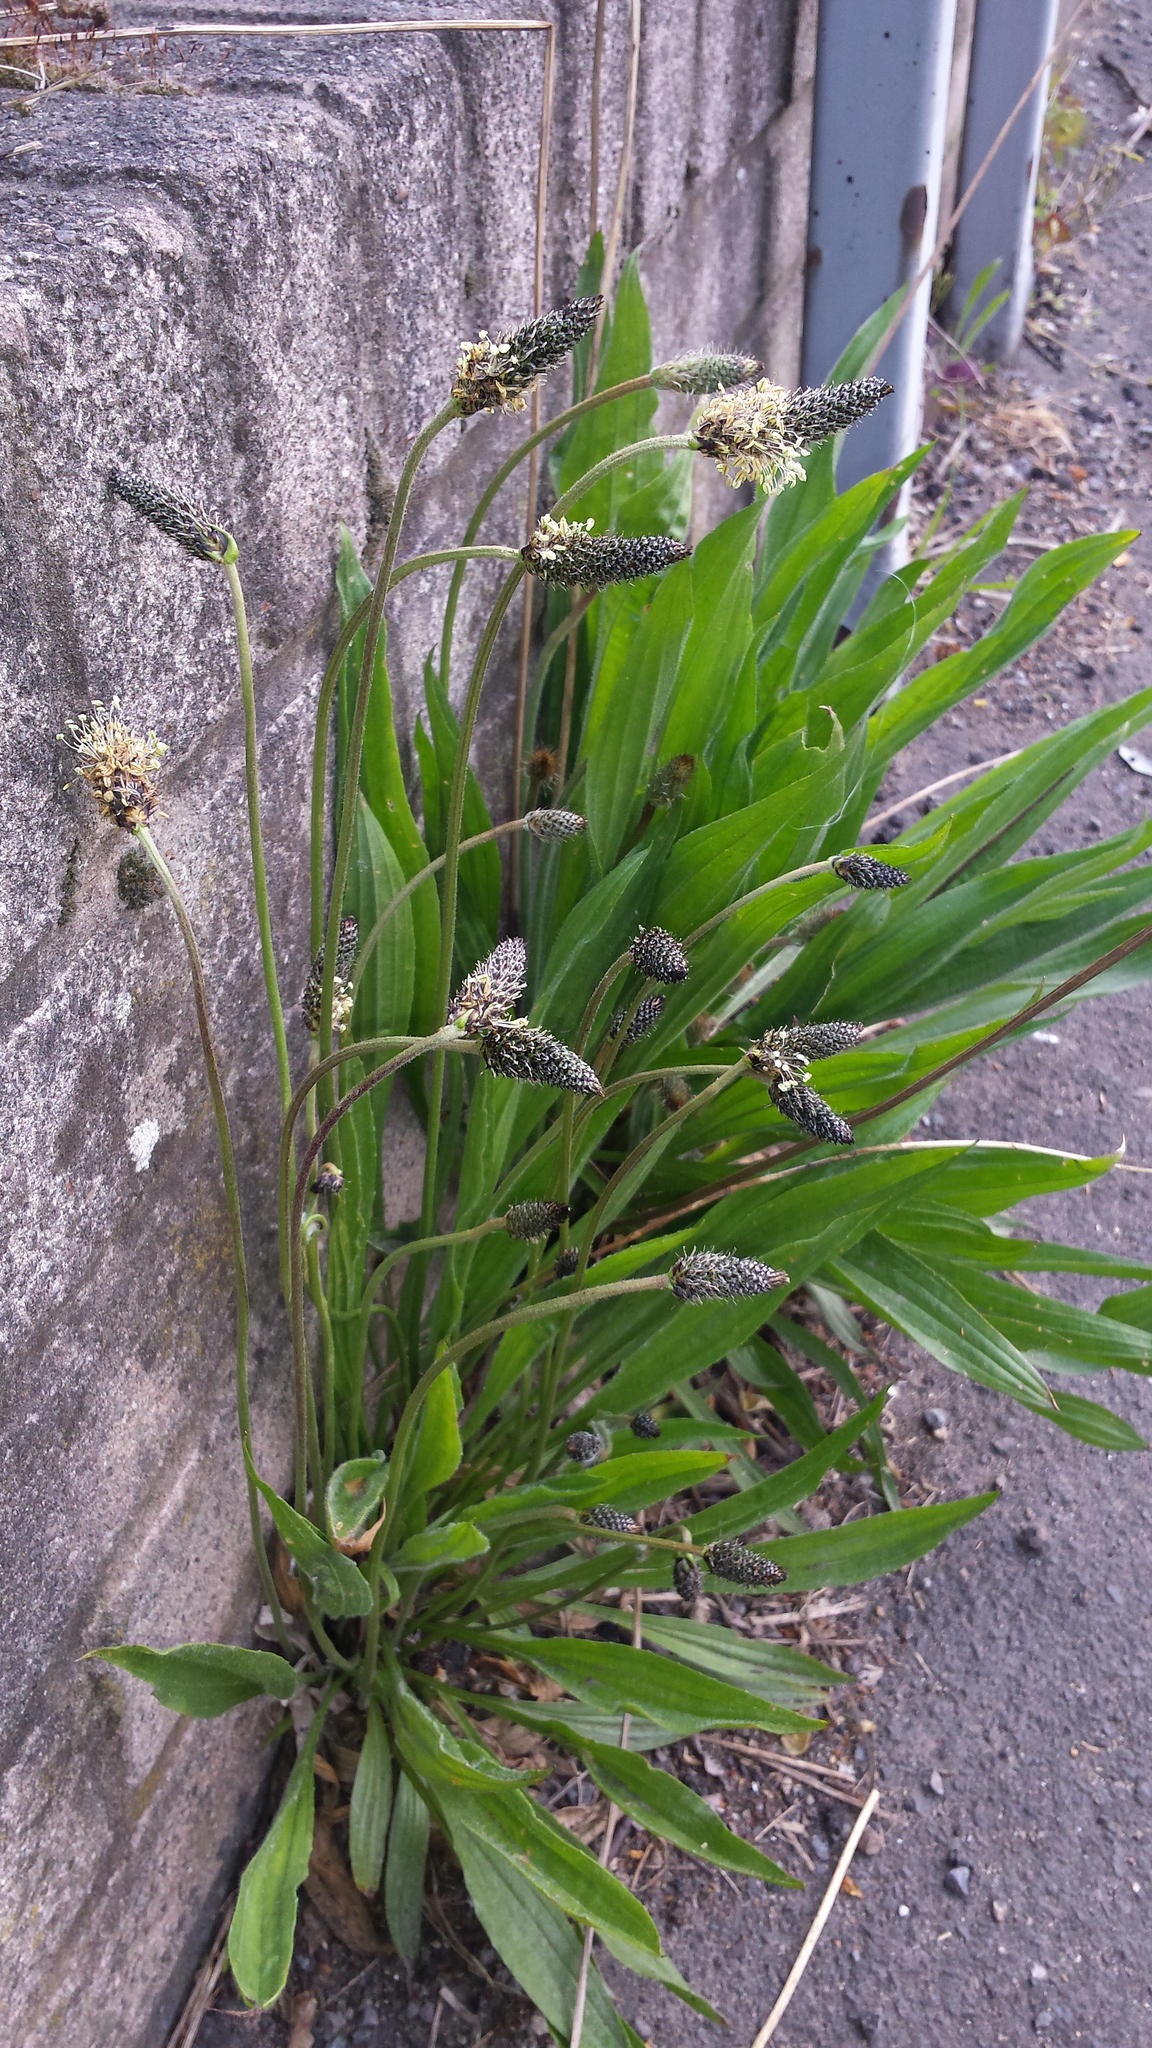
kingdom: Plantae
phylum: Tracheophyta
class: Magnoliopsida
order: Lamiales
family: Plantaginaceae
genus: Plantago
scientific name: Plantago lanceolata
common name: Ribwort plantain
